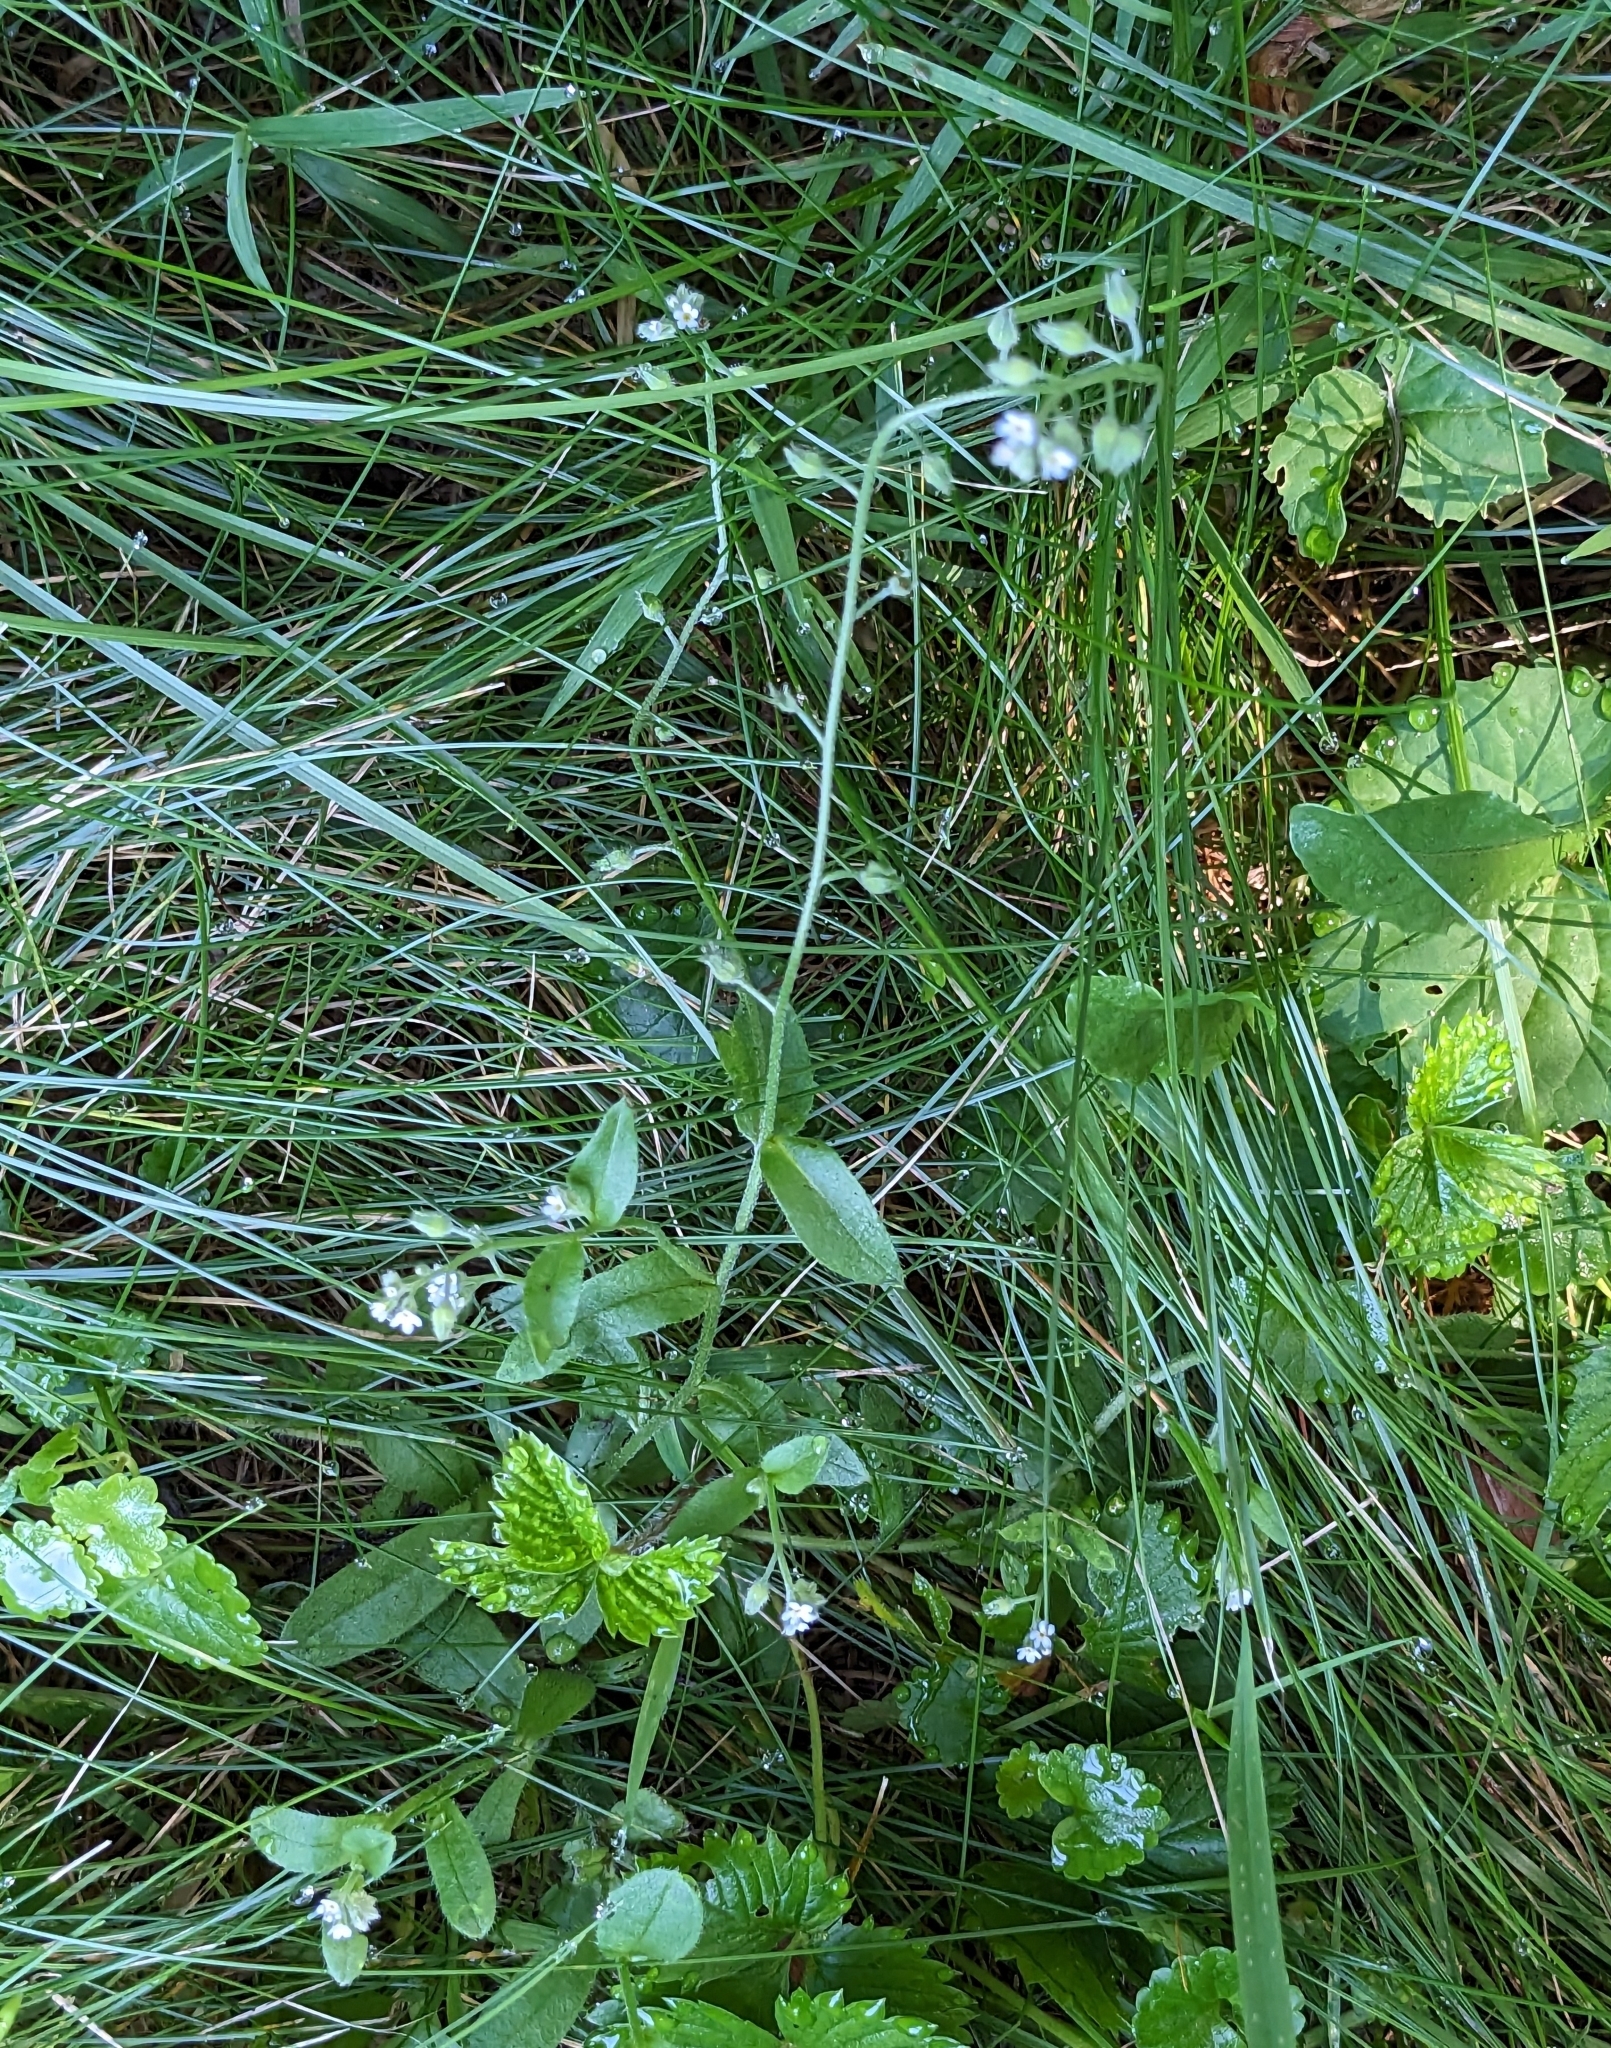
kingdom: Plantae
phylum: Tracheophyta
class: Magnoliopsida
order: Boraginales
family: Boraginaceae
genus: Myosotis
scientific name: Myosotis arvensis
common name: Field forget-me-not
